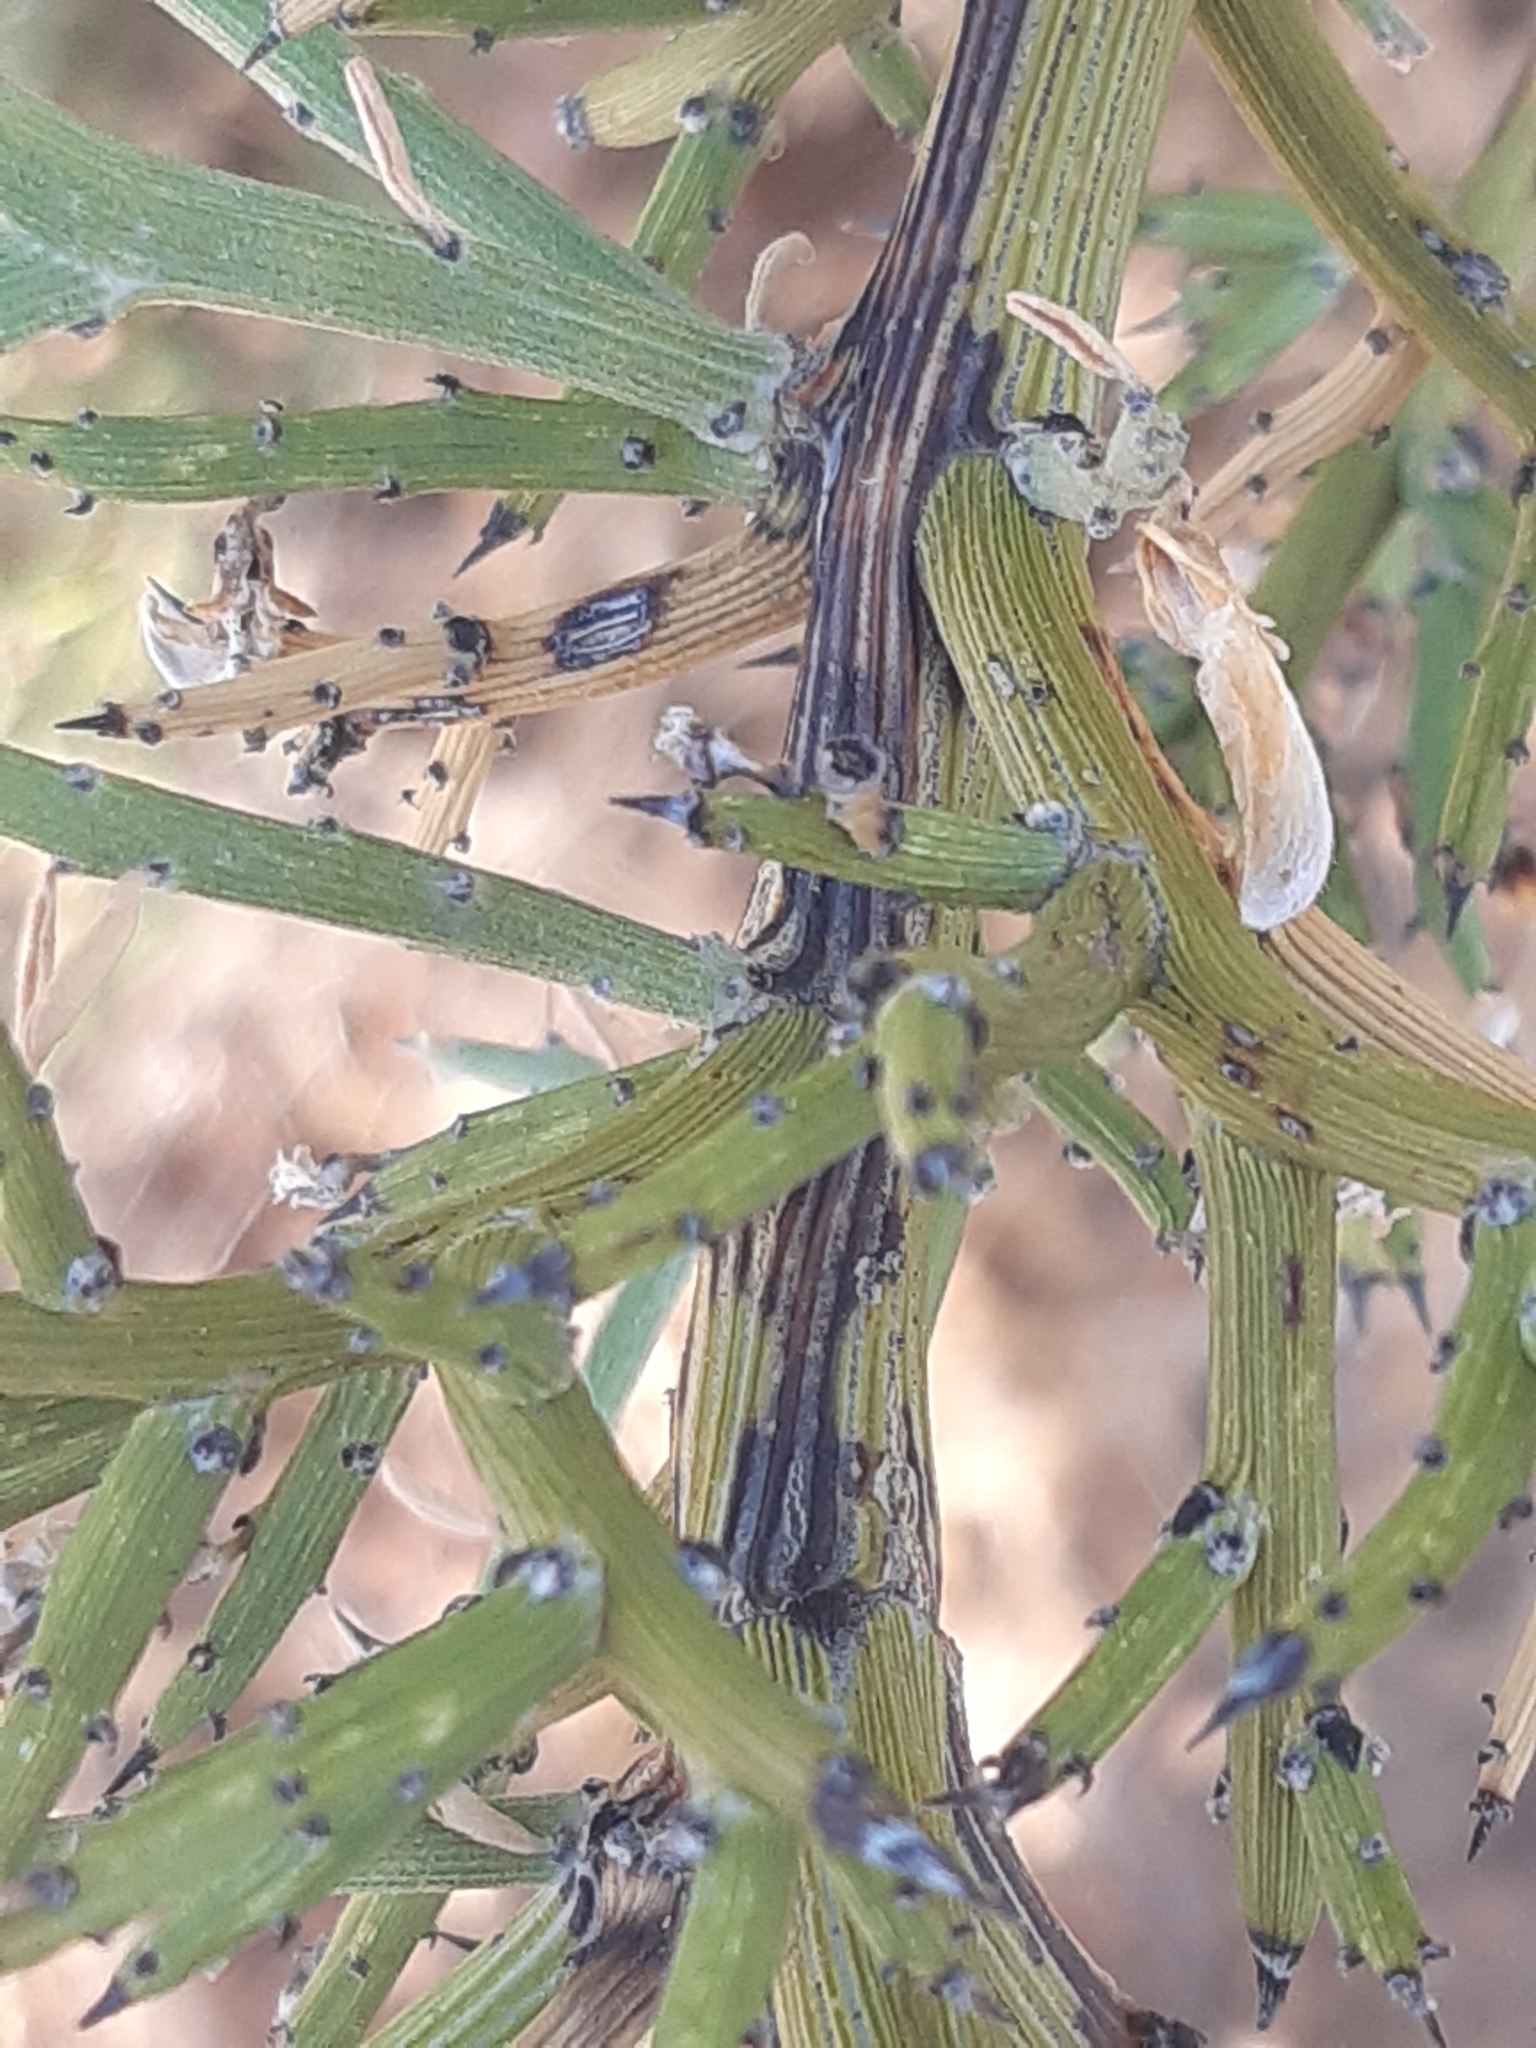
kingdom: Plantae
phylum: Tracheophyta
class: Magnoliopsida
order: Fabales
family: Fabaceae
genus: Genista
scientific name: Genista fasselata
